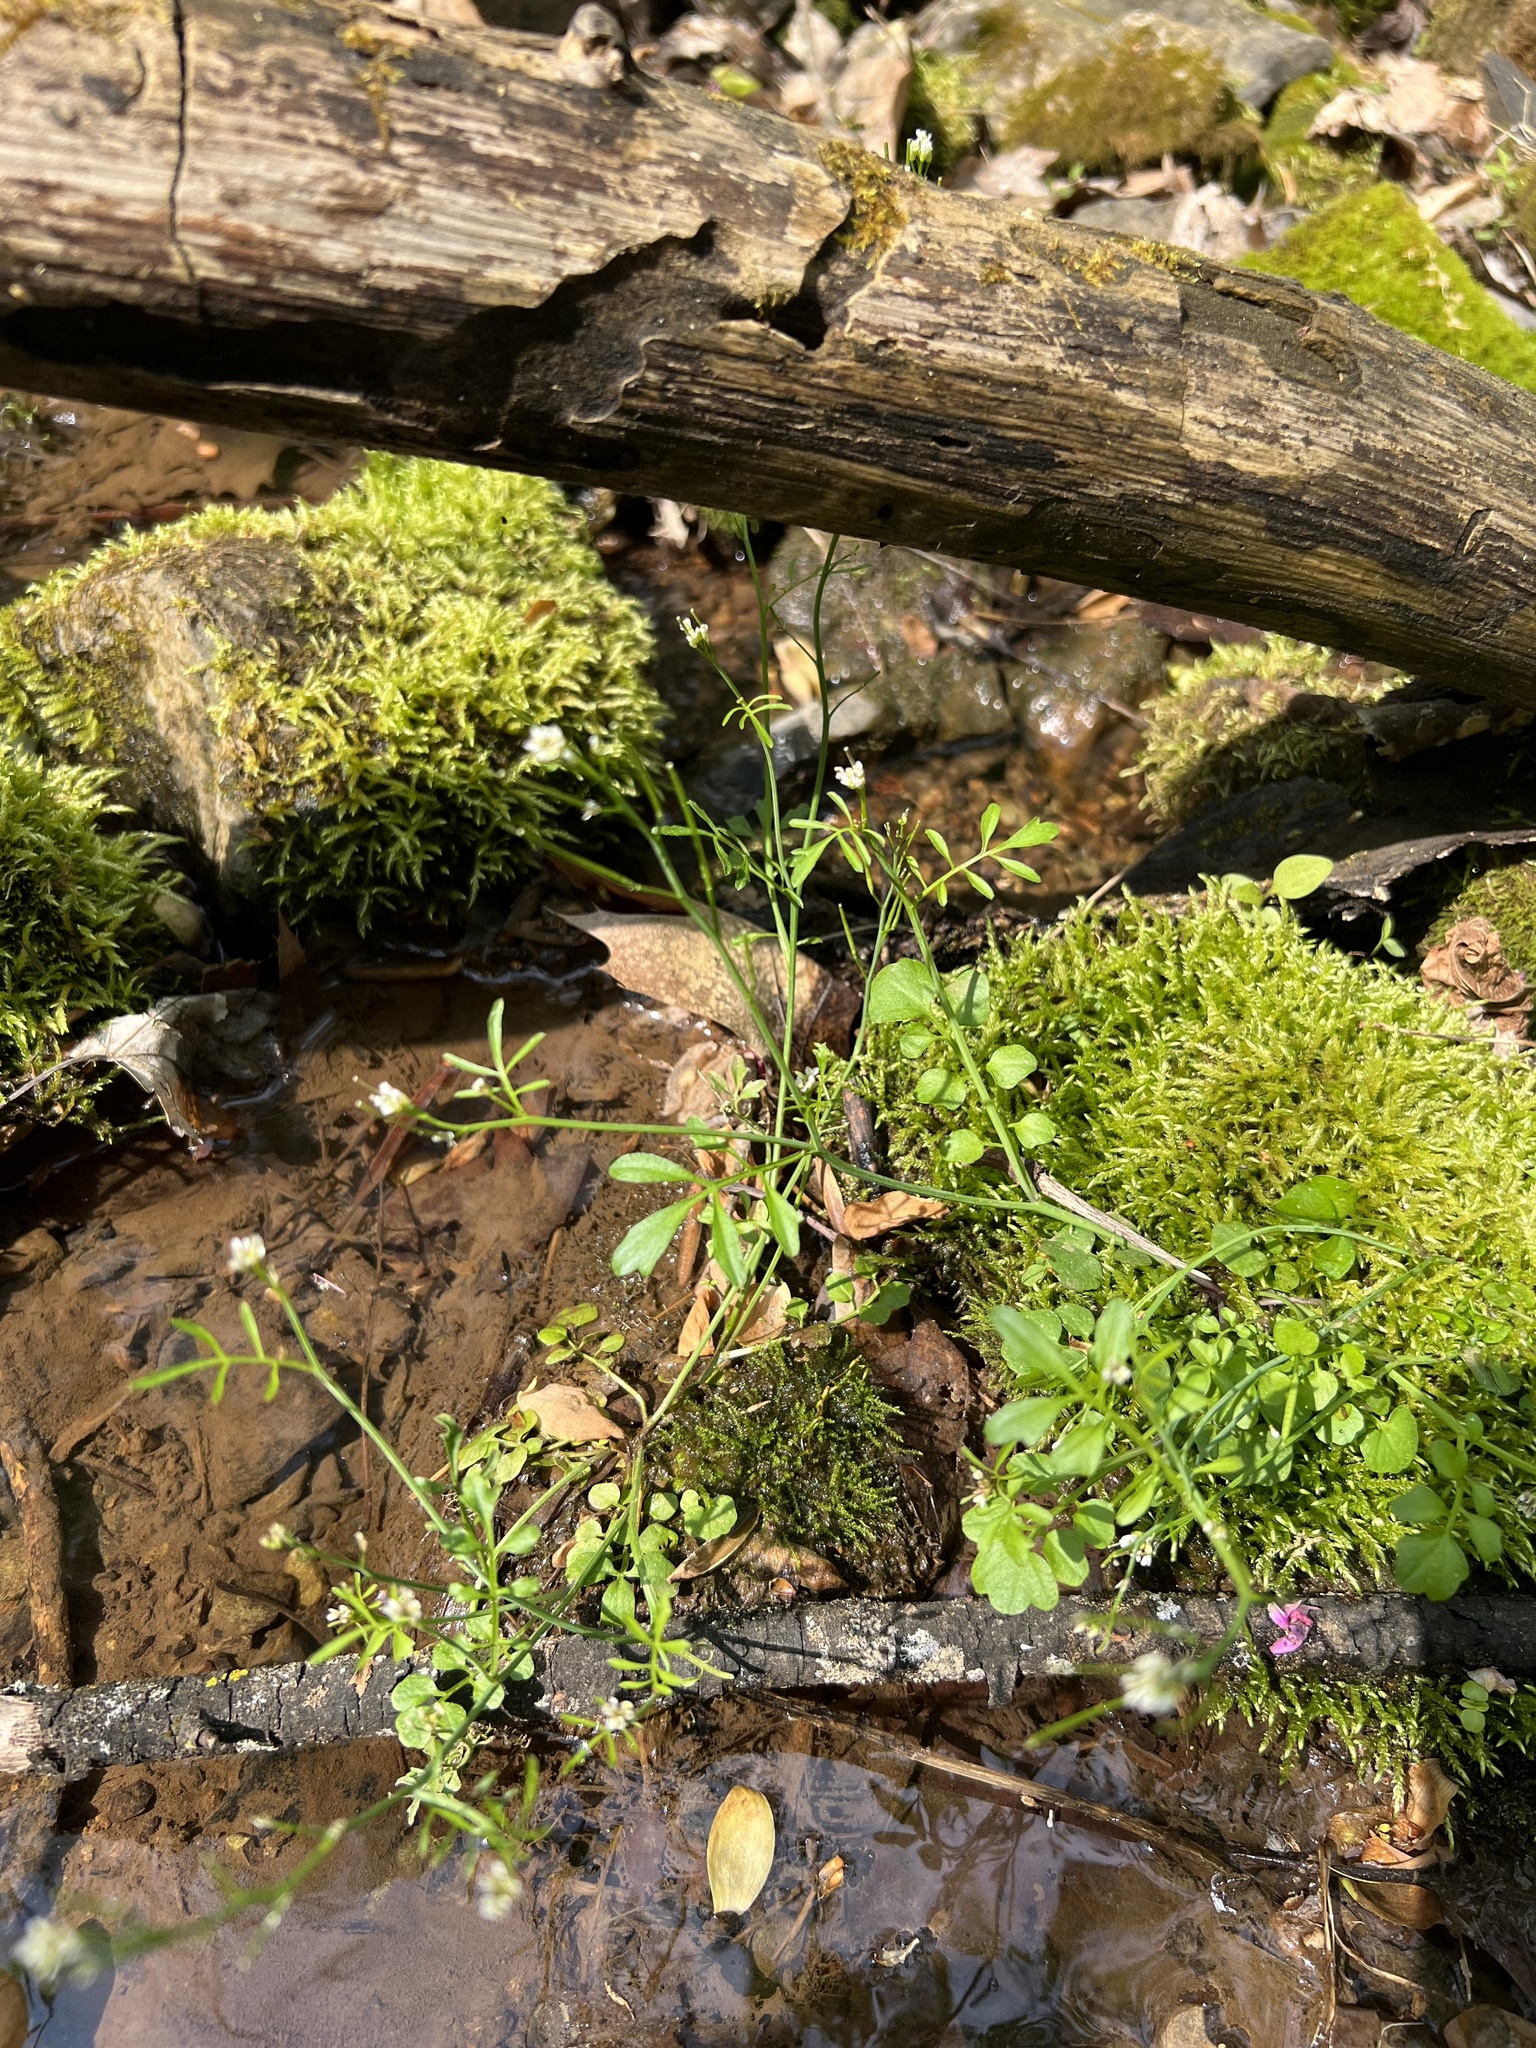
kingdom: Plantae
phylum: Tracheophyta
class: Magnoliopsida
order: Brassicales
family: Brassicaceae
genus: Cardamine
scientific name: Cardamine pensylvanica
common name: Pennsylvania bittercress
